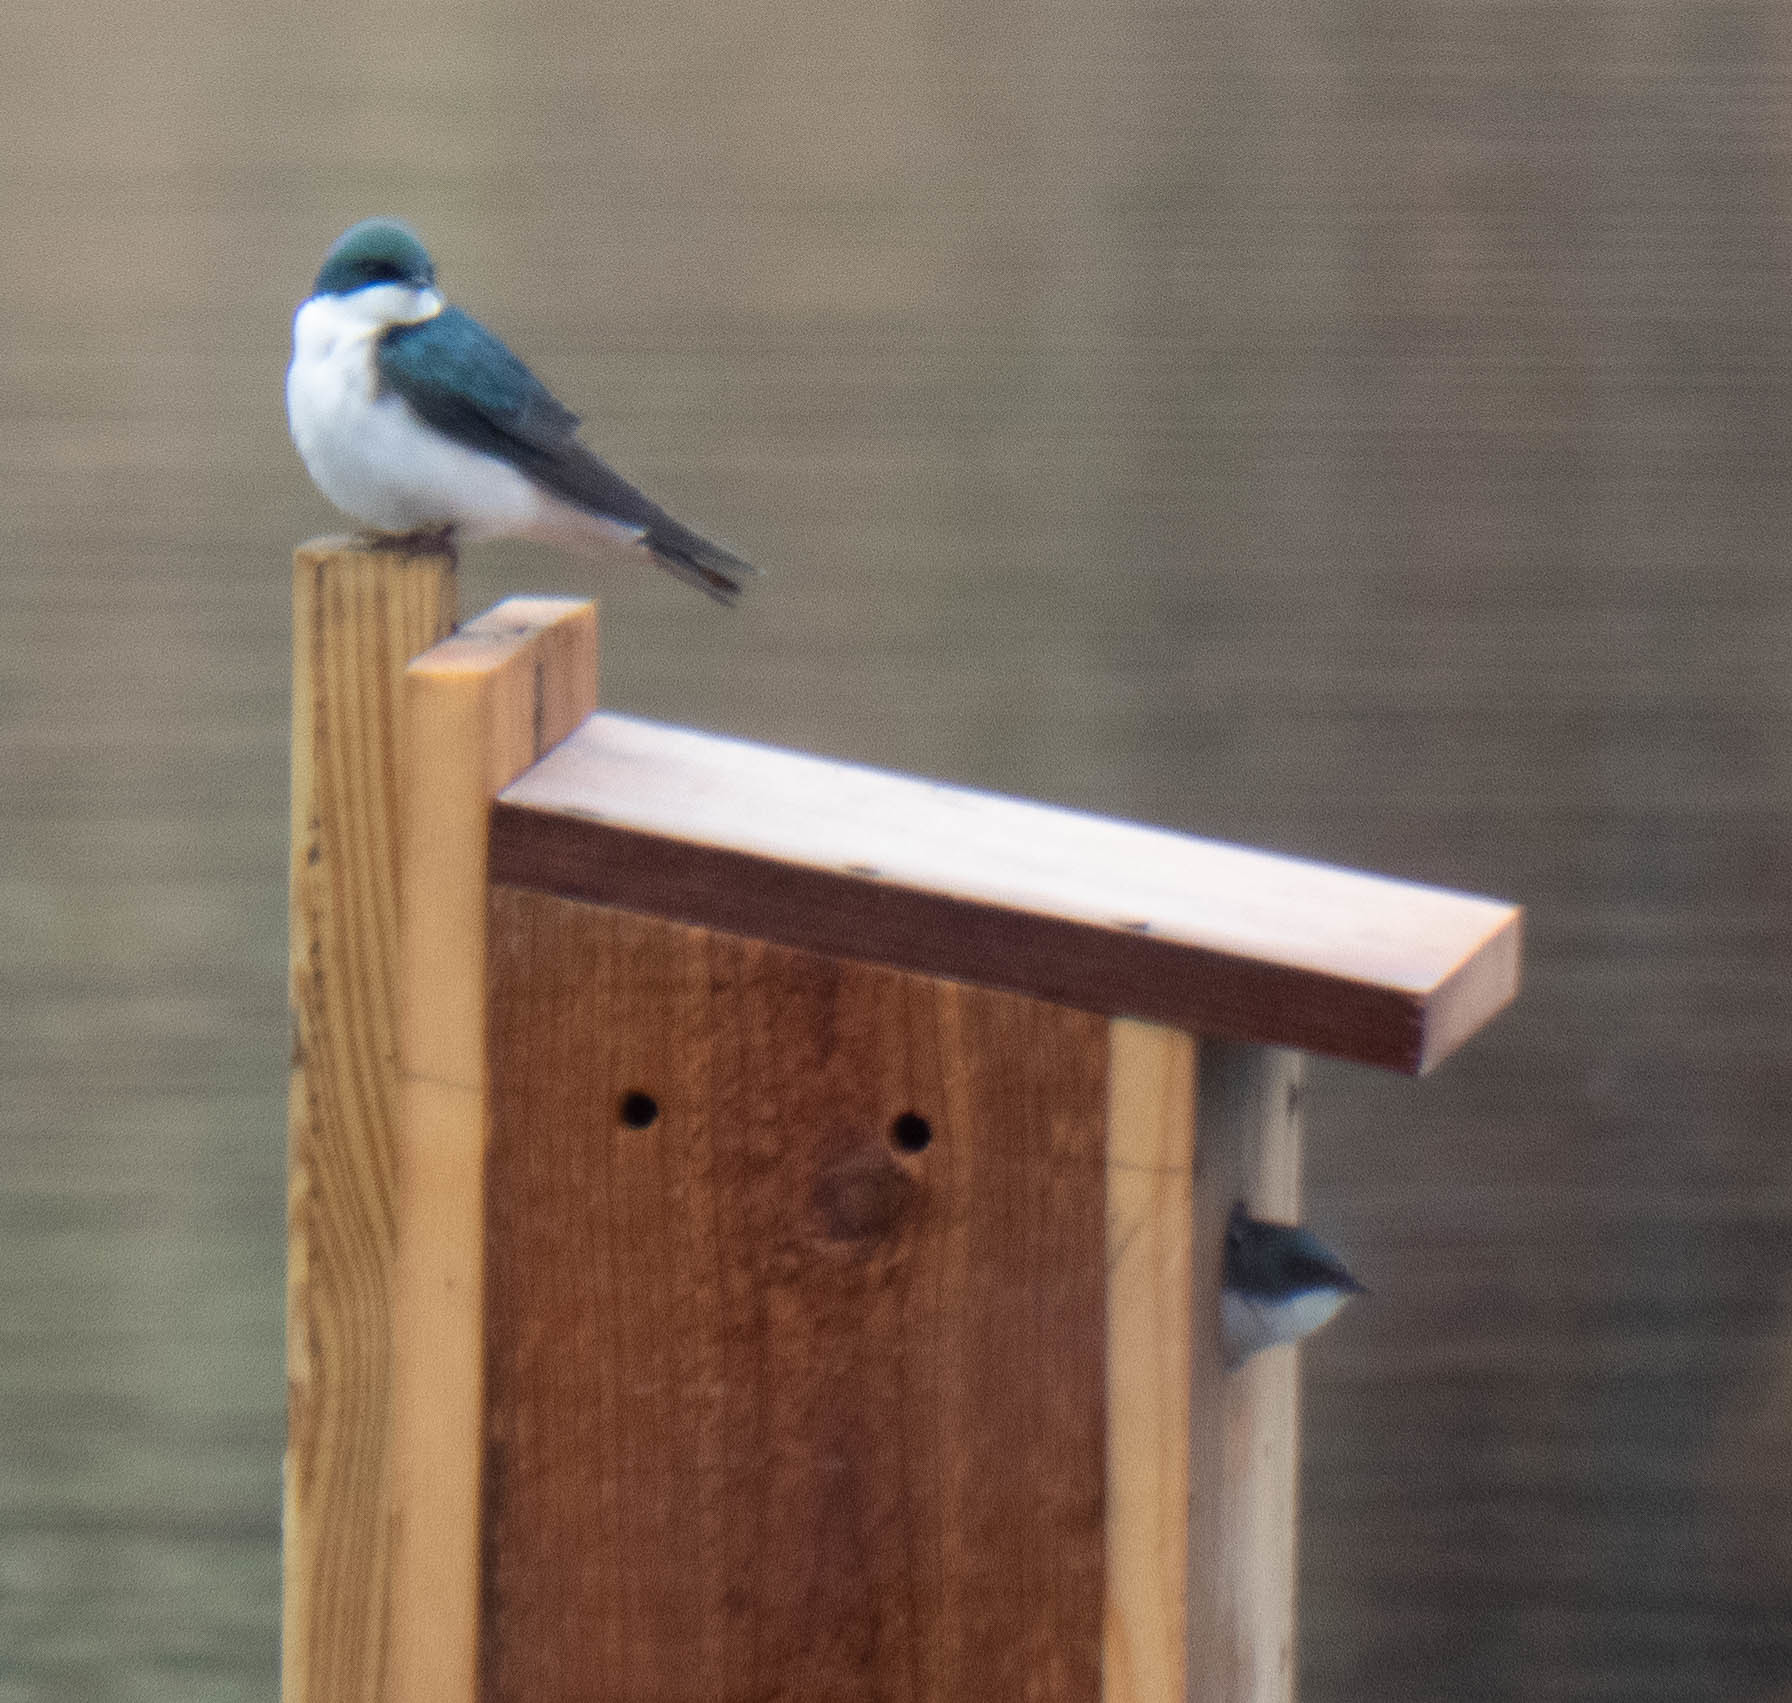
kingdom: Animalia
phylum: Chordata
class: Aves
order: Passeriformes
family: Hirundinidae
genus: Tachycineta
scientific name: Tachycineta bicolor
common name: Tree swallow
